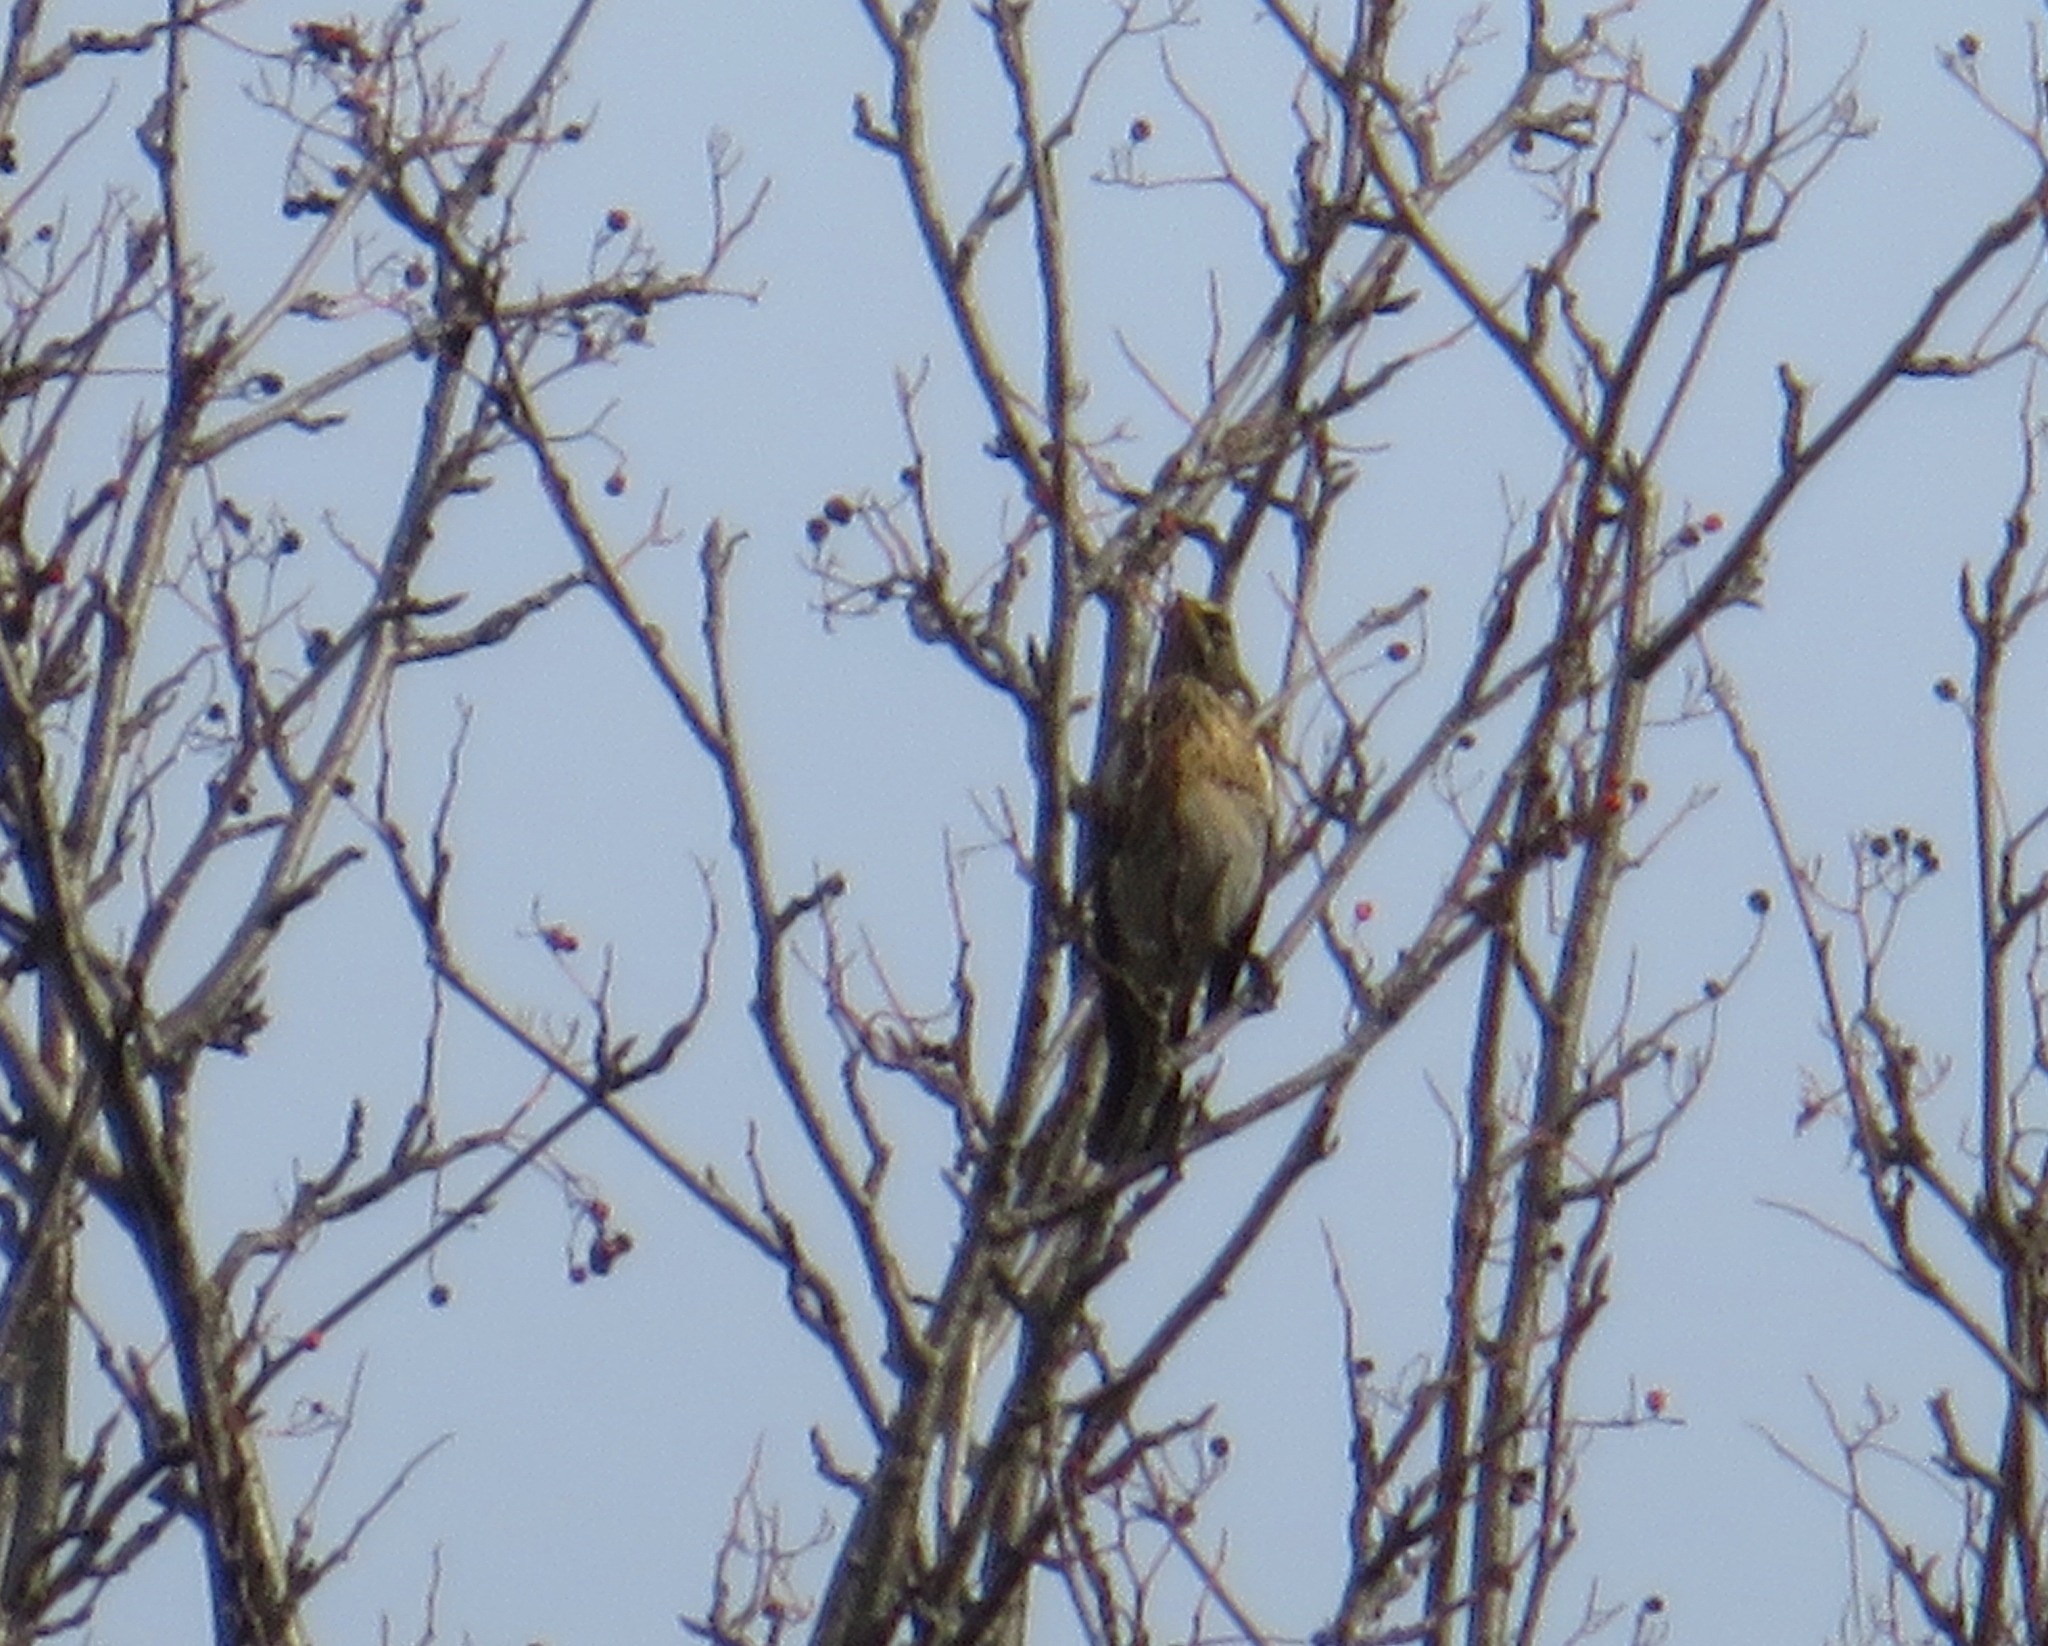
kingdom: Animalia
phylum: Chordata
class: Aves
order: Passeriformes
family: Turdidae
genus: Turdus
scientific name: Turdus pilaris
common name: Fieldfare
